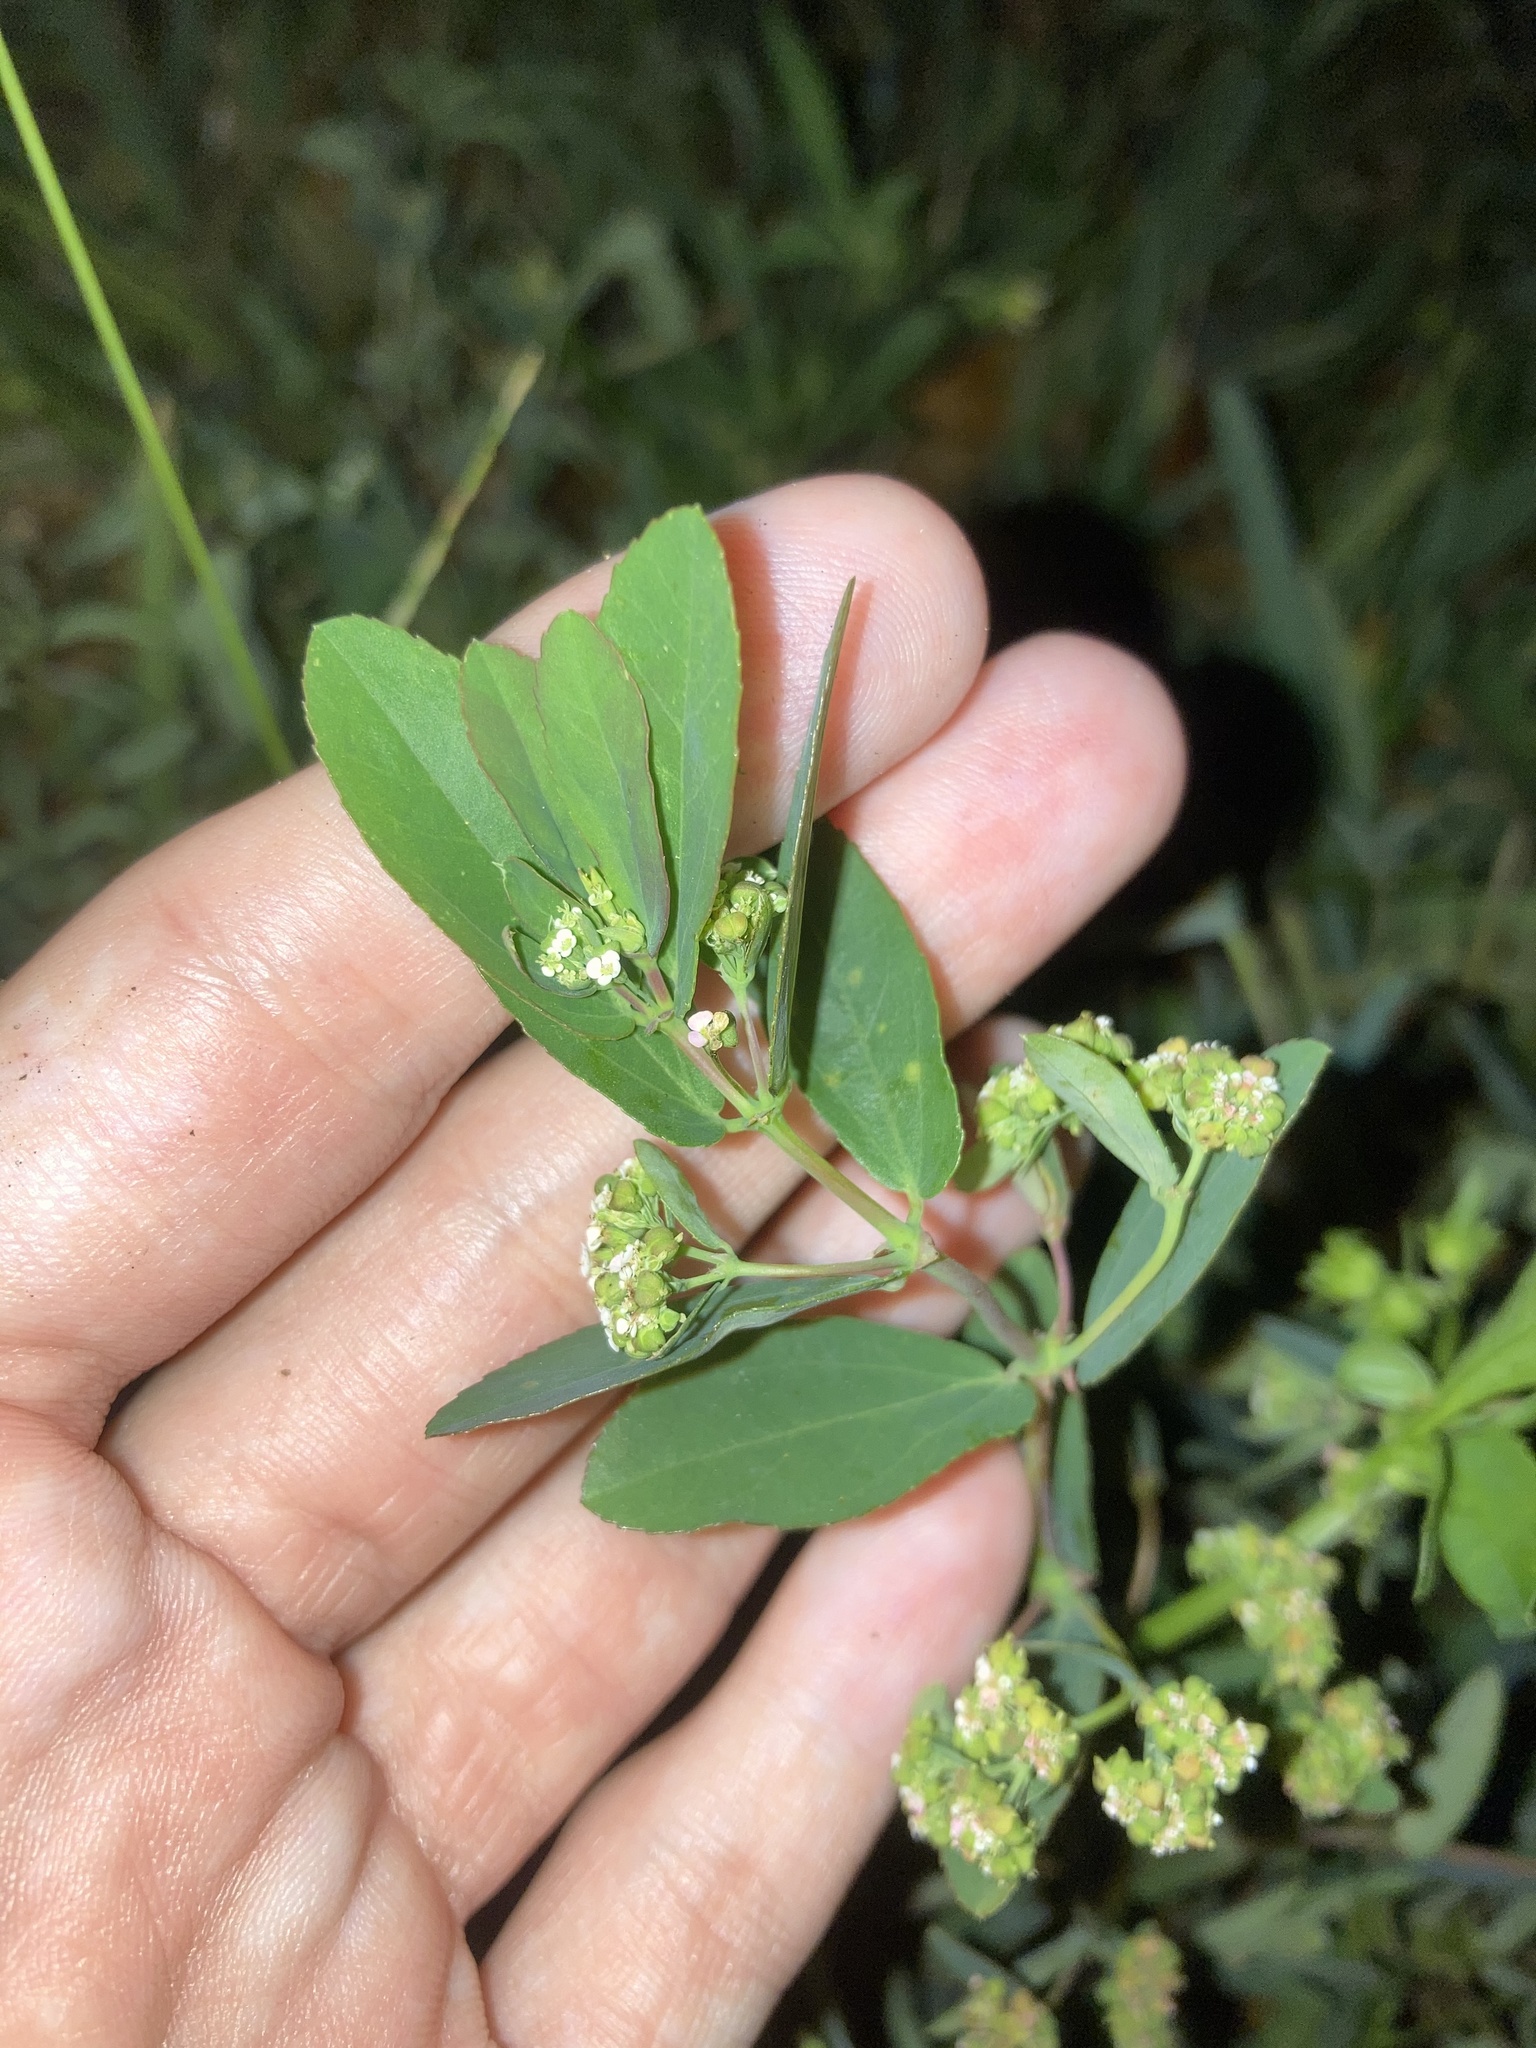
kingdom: Plantae
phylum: Tracheophyta
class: Magnoliopsida
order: Malpighiales
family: Euphorbiaceae
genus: Euphorbia
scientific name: Euphorbia hypericifolia
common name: Graceful sandmat
